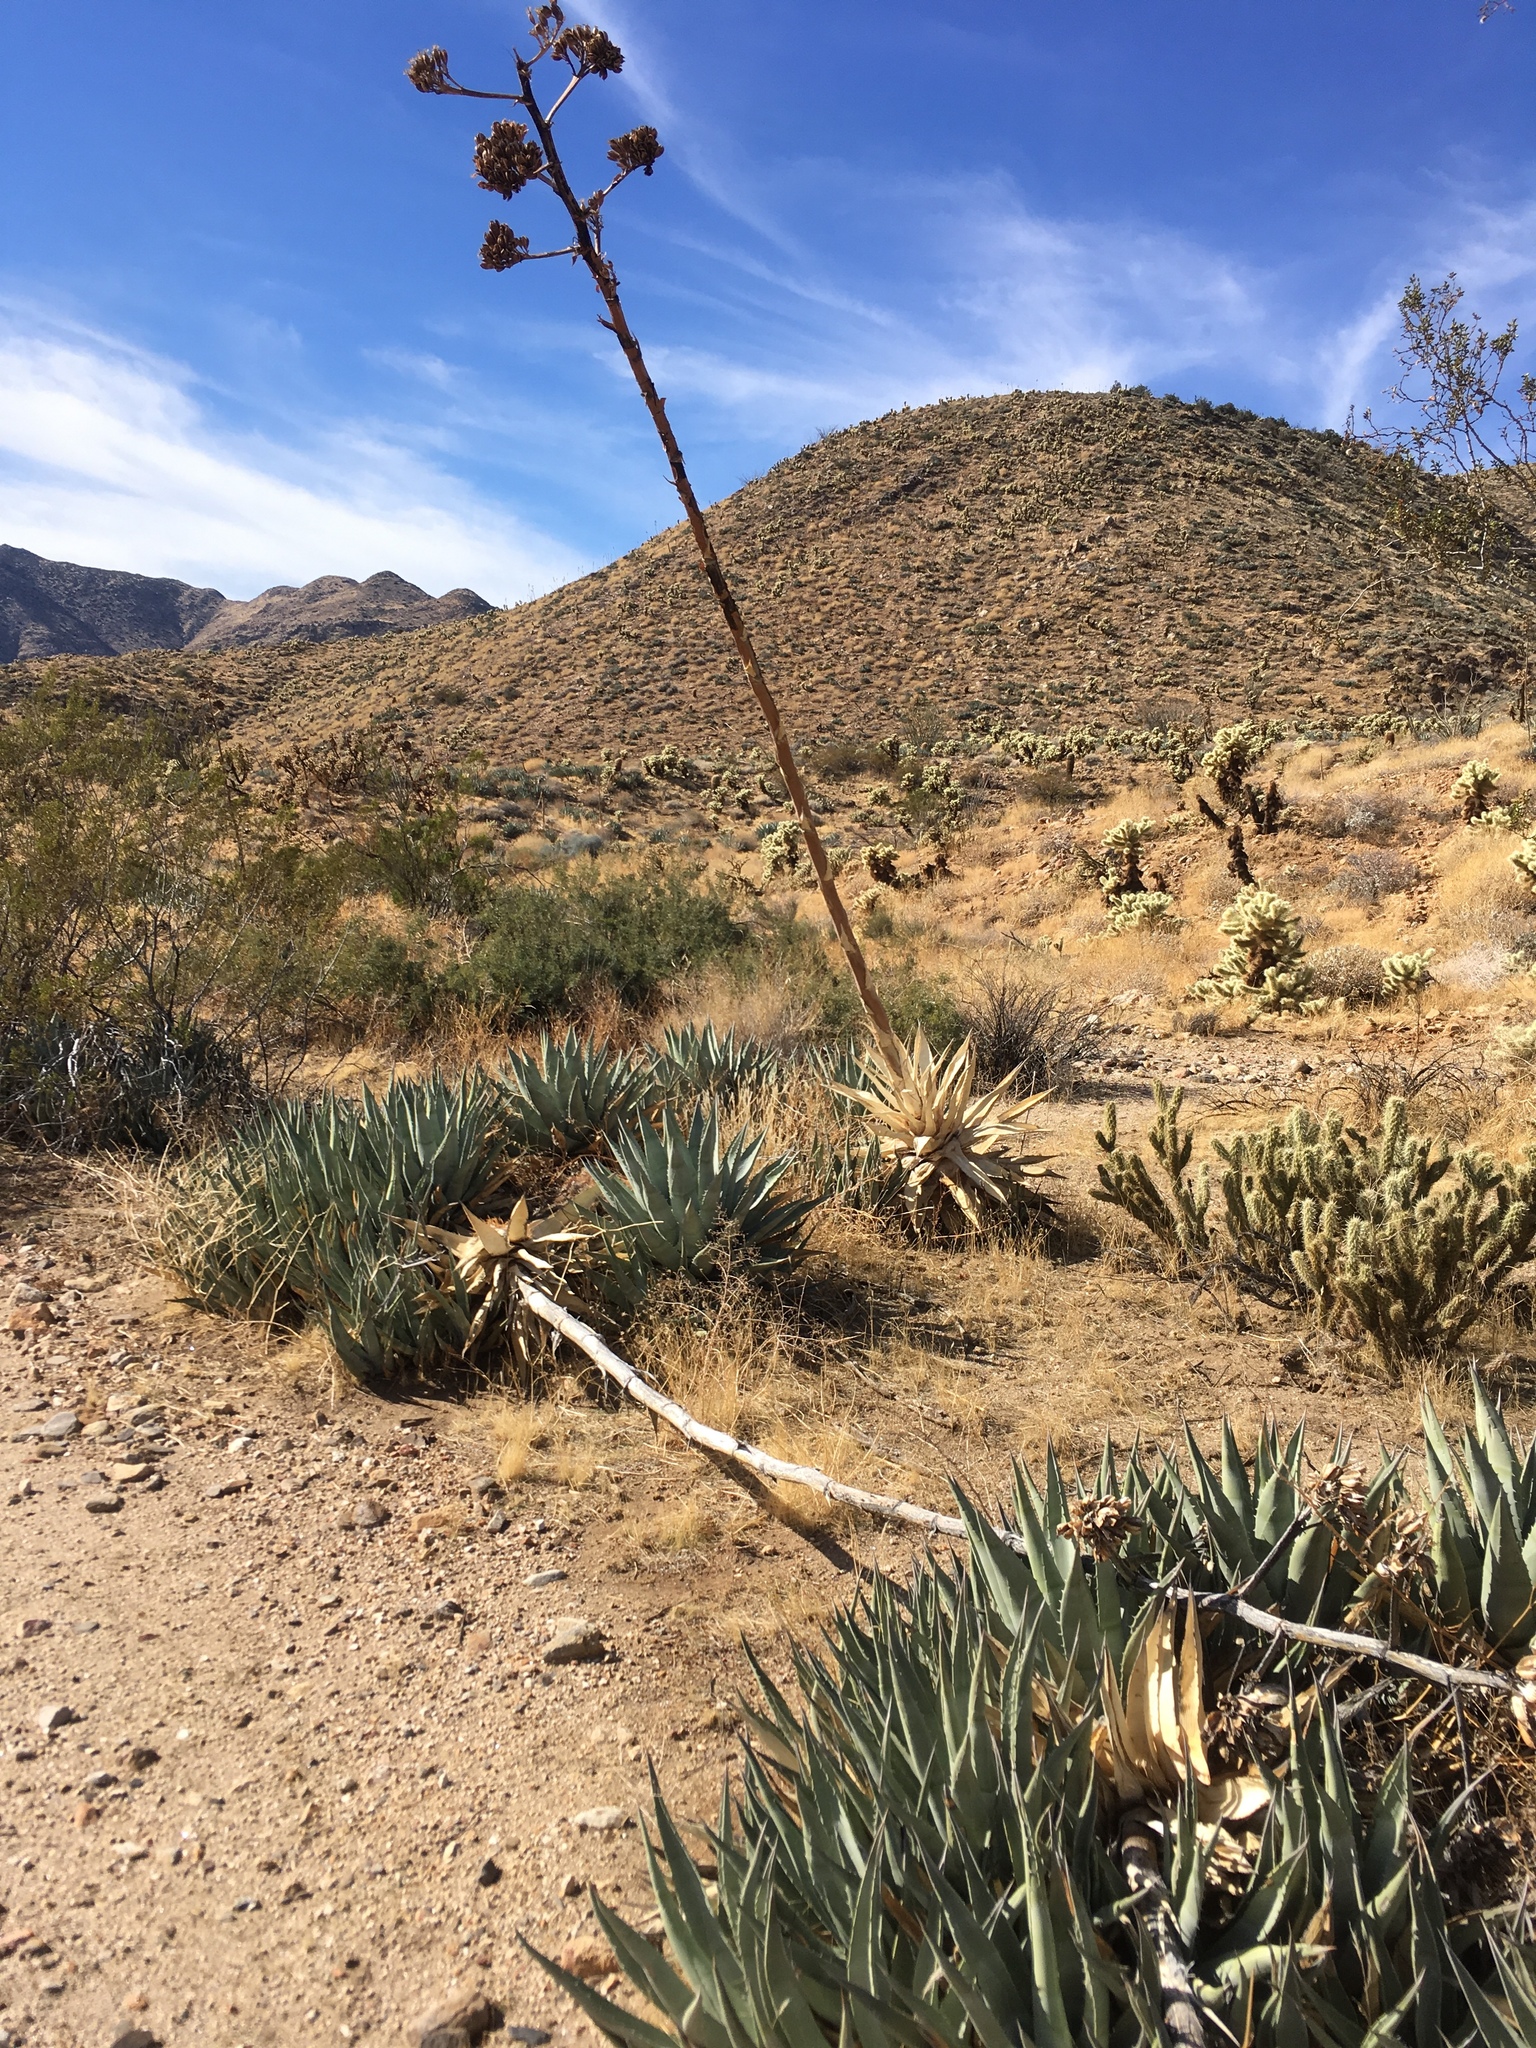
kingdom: Plantae
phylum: Tracheophyta
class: Liliopsida
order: Asparagales
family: Asparagaceae
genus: Agave
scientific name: Agave deserti
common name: Desert agave
